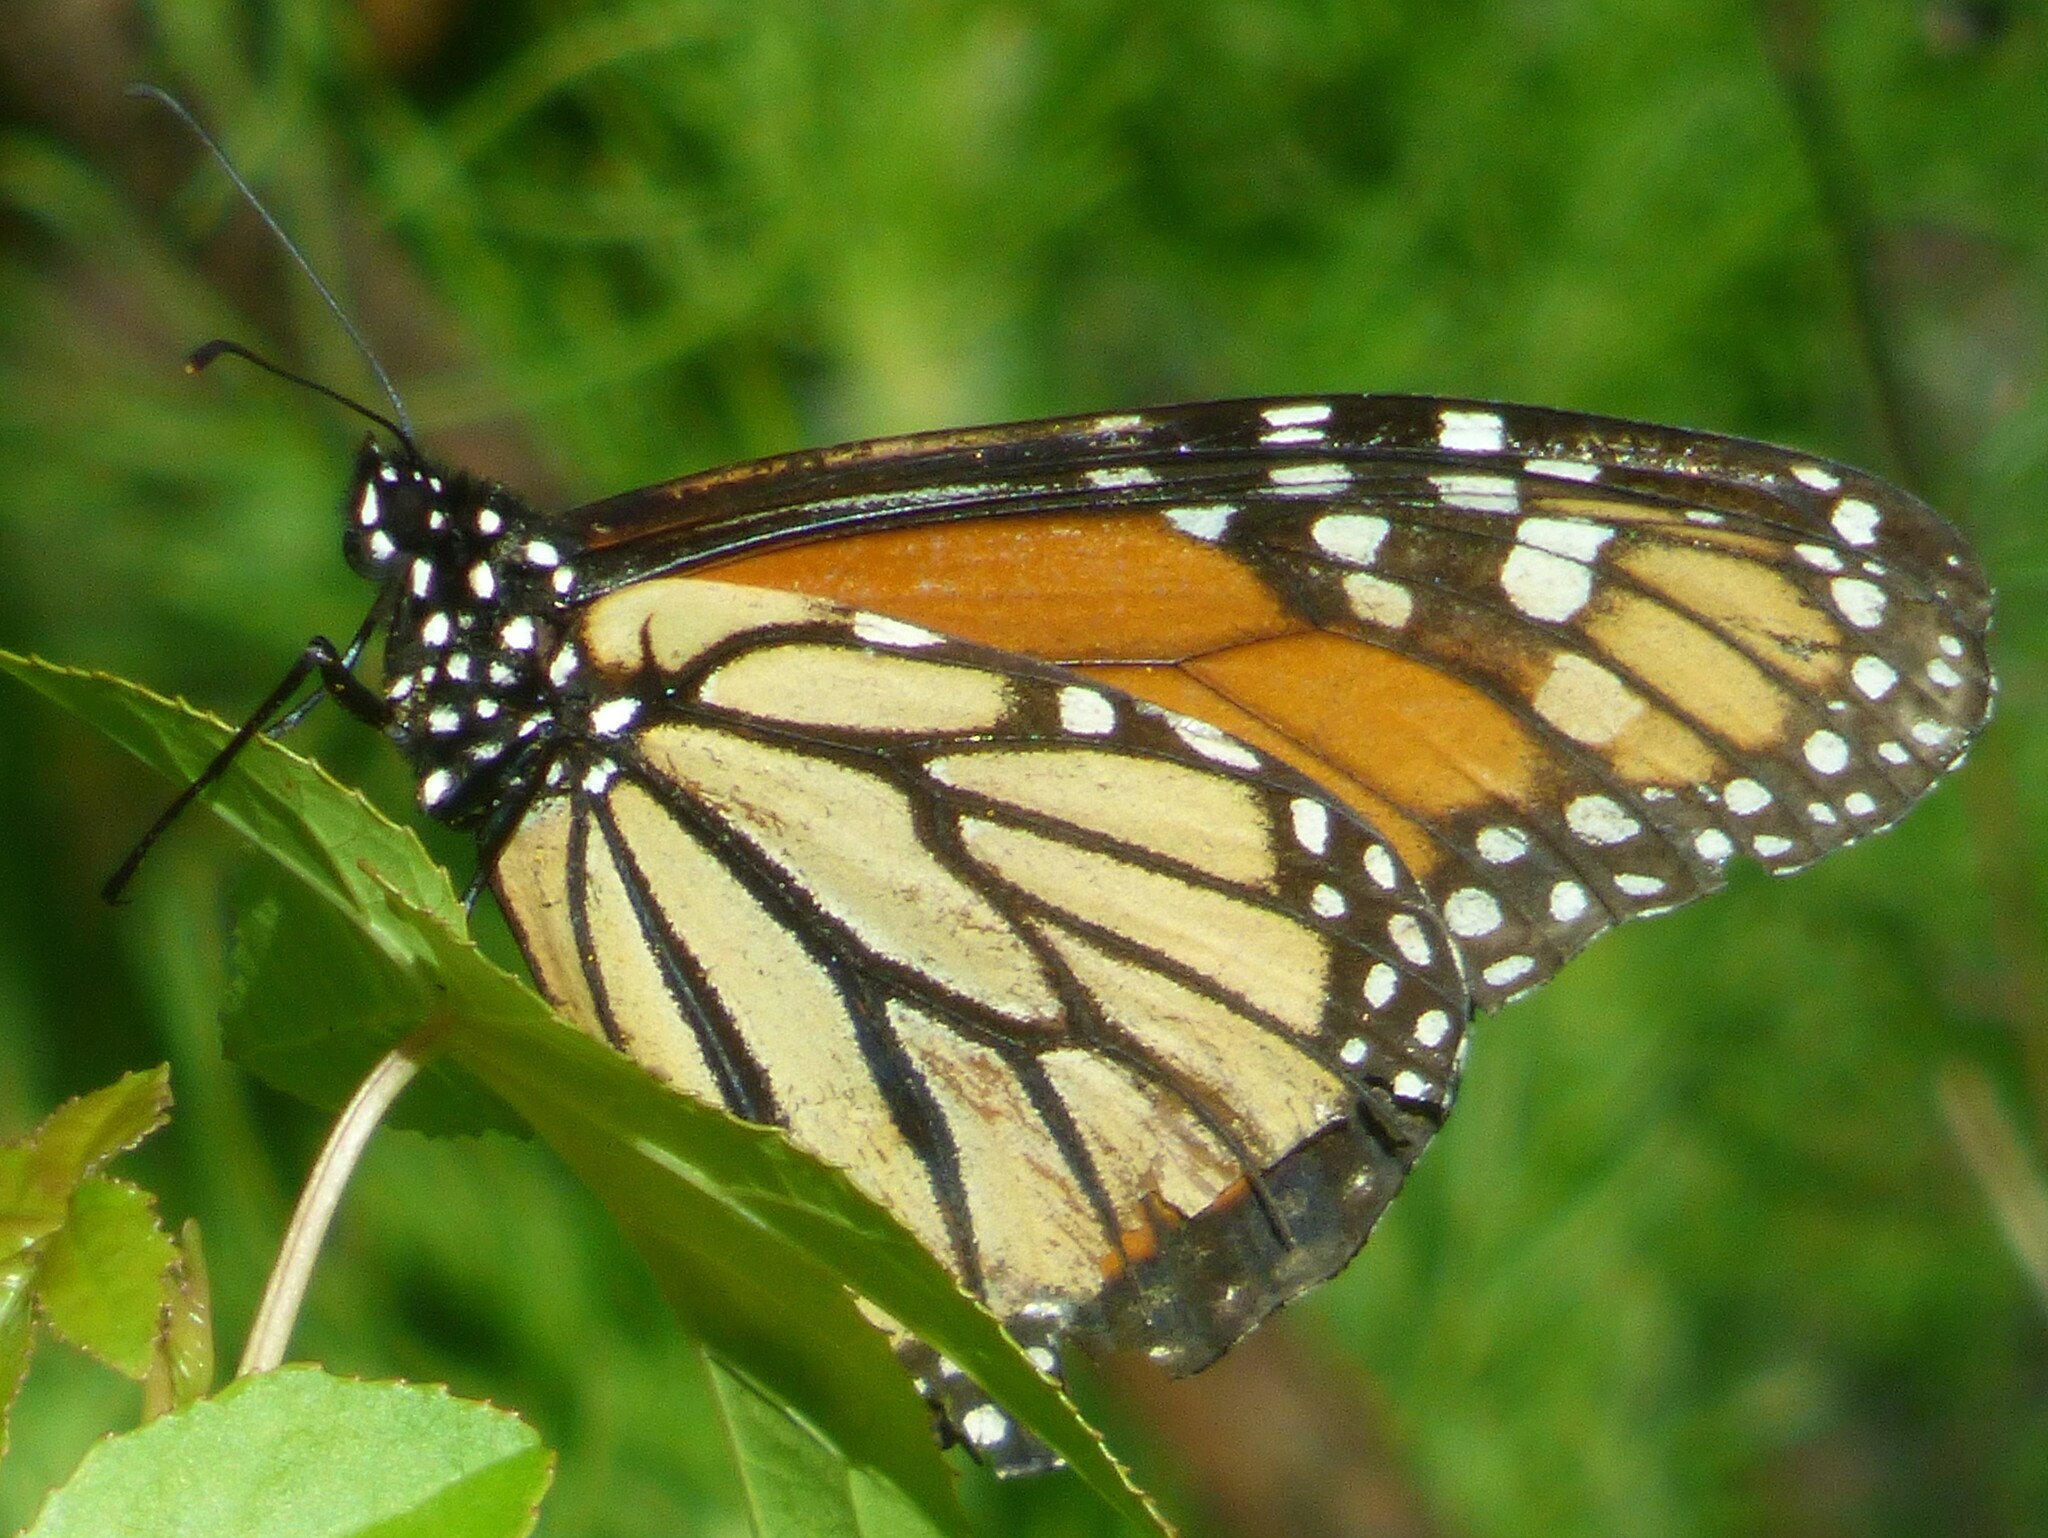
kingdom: Animalia
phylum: Arthropoda
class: Insecta
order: Lepidoptera
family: Nymphalidae
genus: Danaus
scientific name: Danaus plexippus
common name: Monarch
